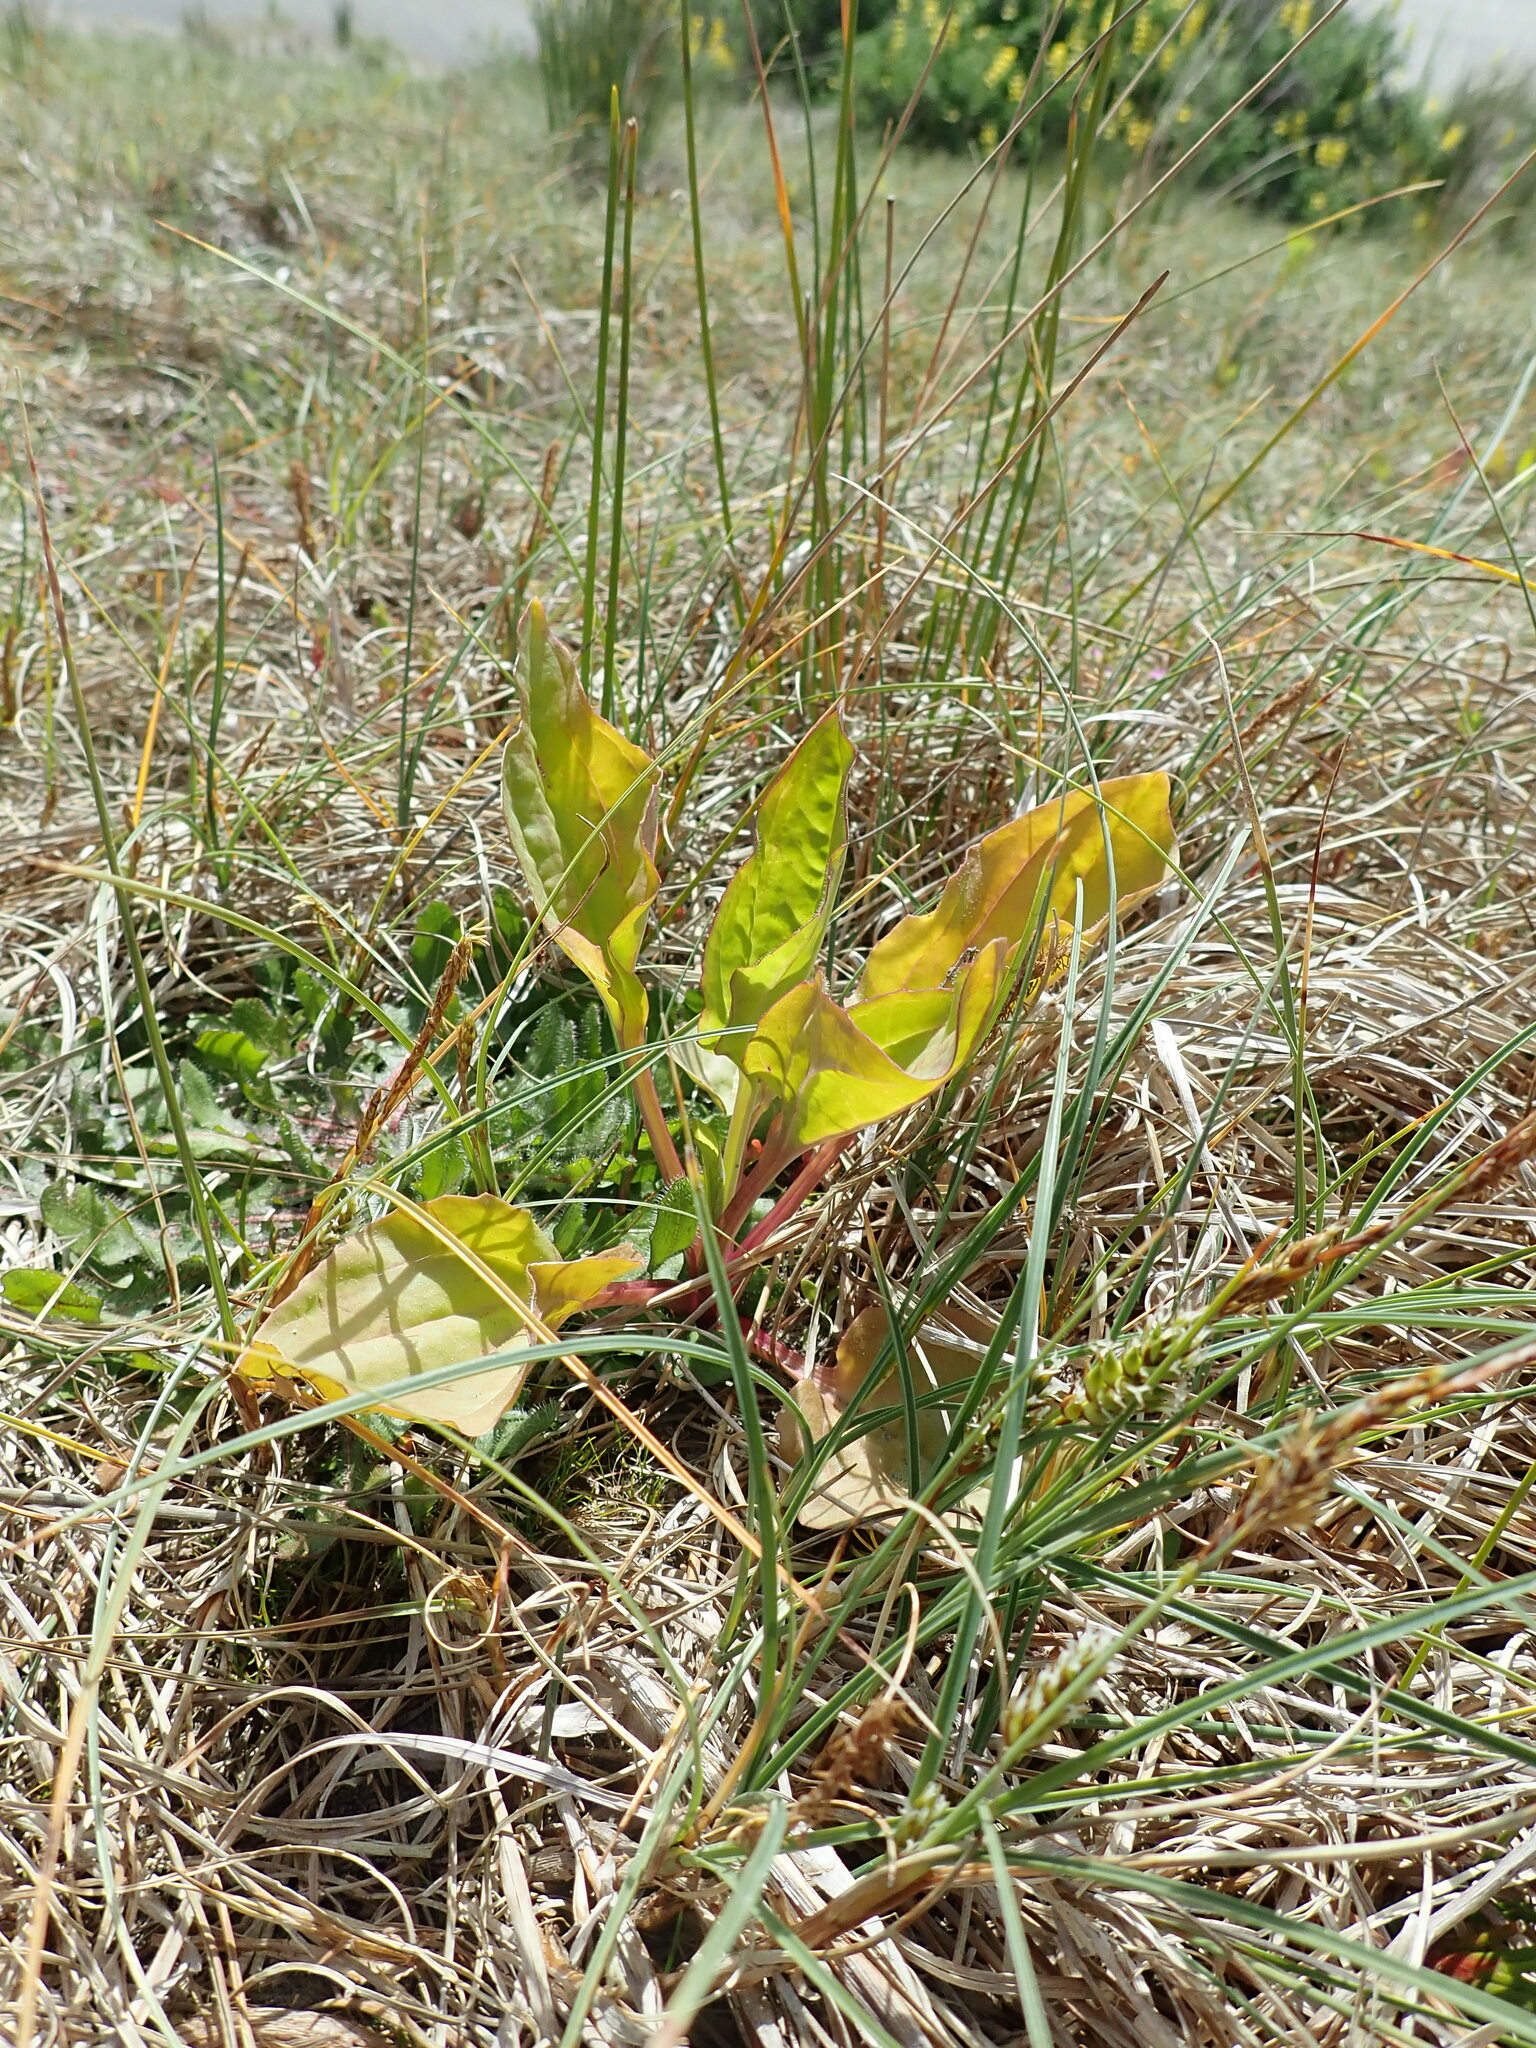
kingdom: Plantae
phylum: Tracheophyta
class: Magnoliopsida
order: Lamiales
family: Plantaginaceae
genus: Plantago
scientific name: Plantago major
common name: Common plantain
